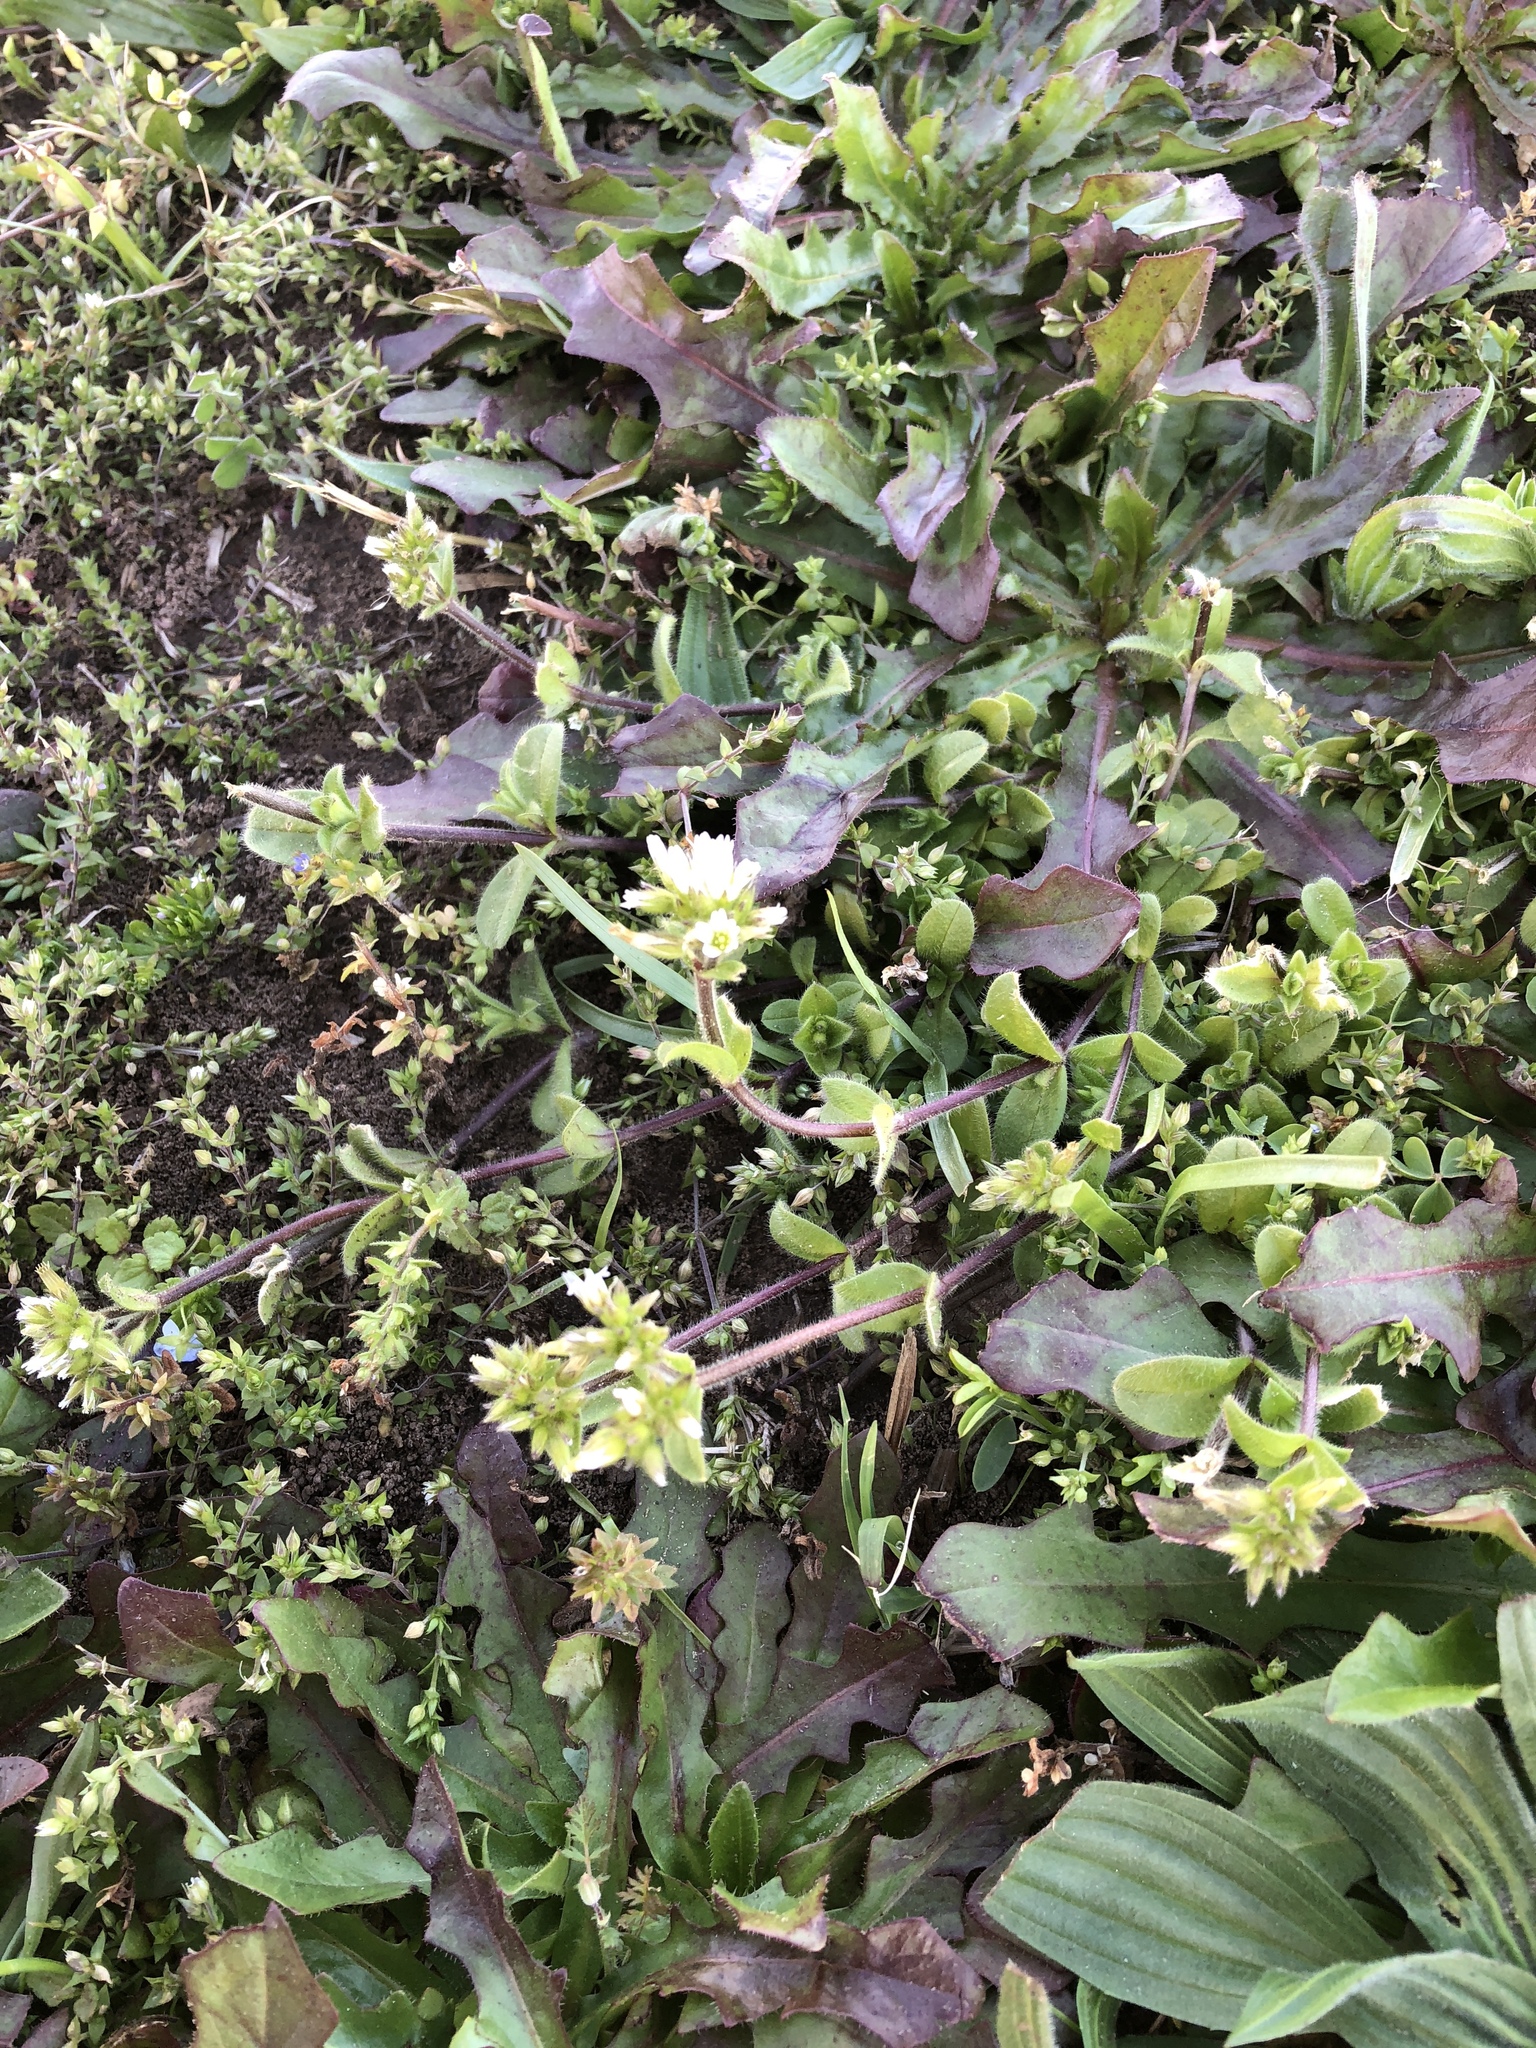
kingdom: Plantae
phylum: Tracheophyta
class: Magnoliopsida
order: Caryophyllales
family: Caryophyllaceae
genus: Cerastium
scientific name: Cerastium glomeratum
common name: Sticky chickweed
